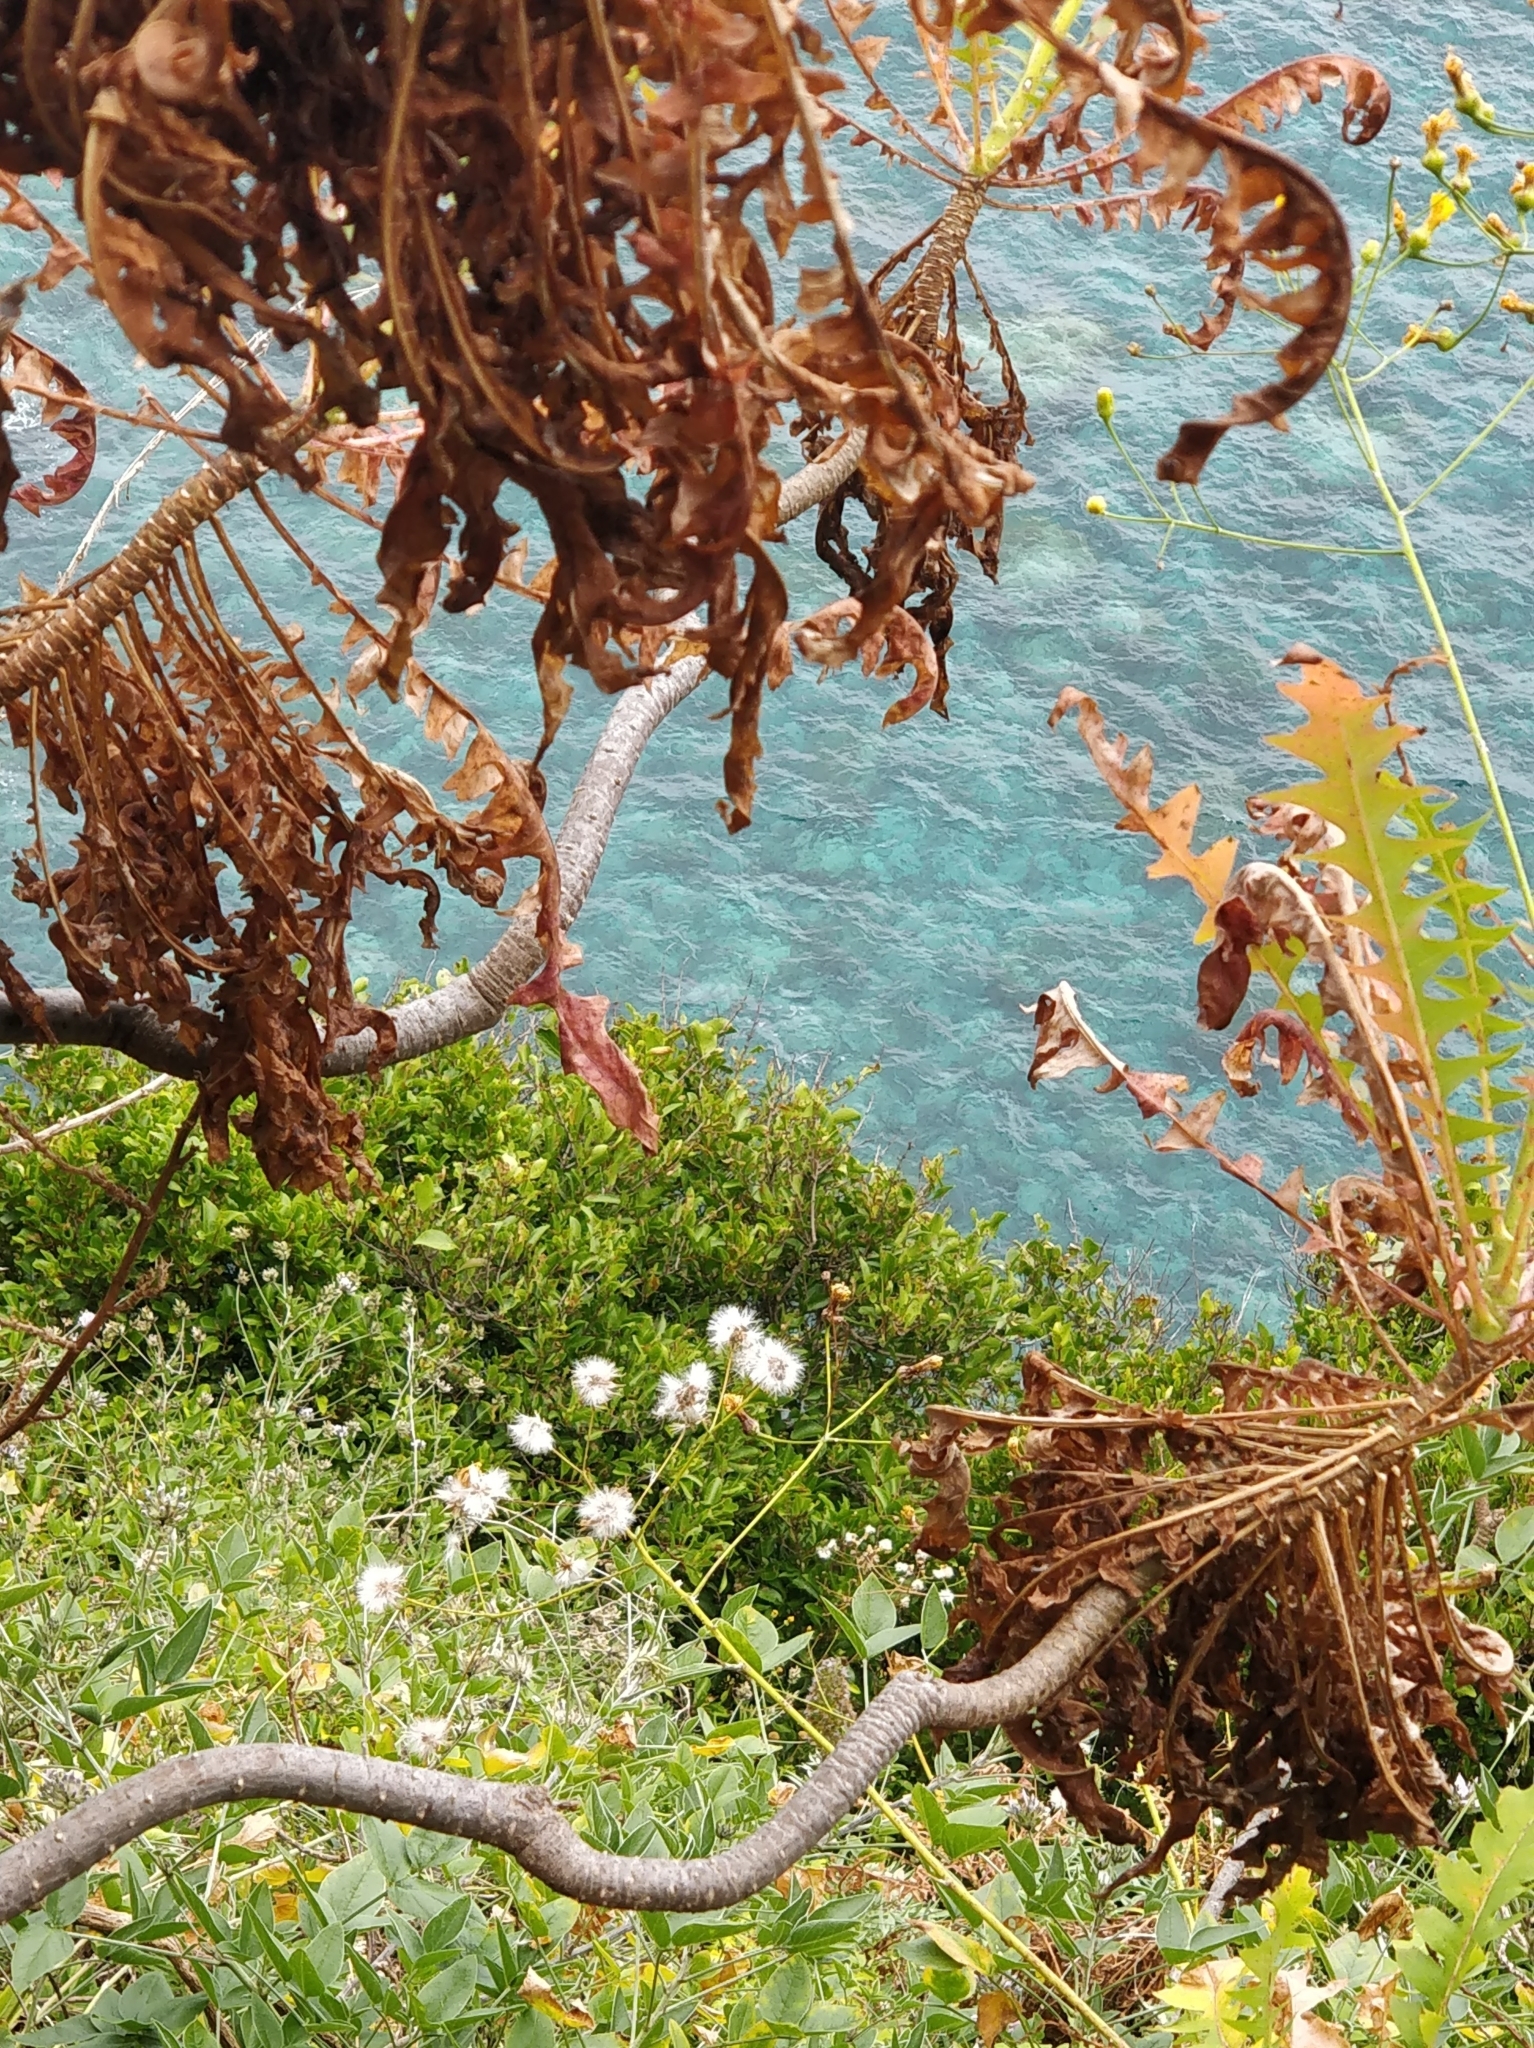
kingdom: Plantae
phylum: Tracheophyta
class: Magnoliopsida
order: Asterales
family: Asteraceae
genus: Sonchus
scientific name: Sonchus pinnatus
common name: Wing-leaved sow-thistle
